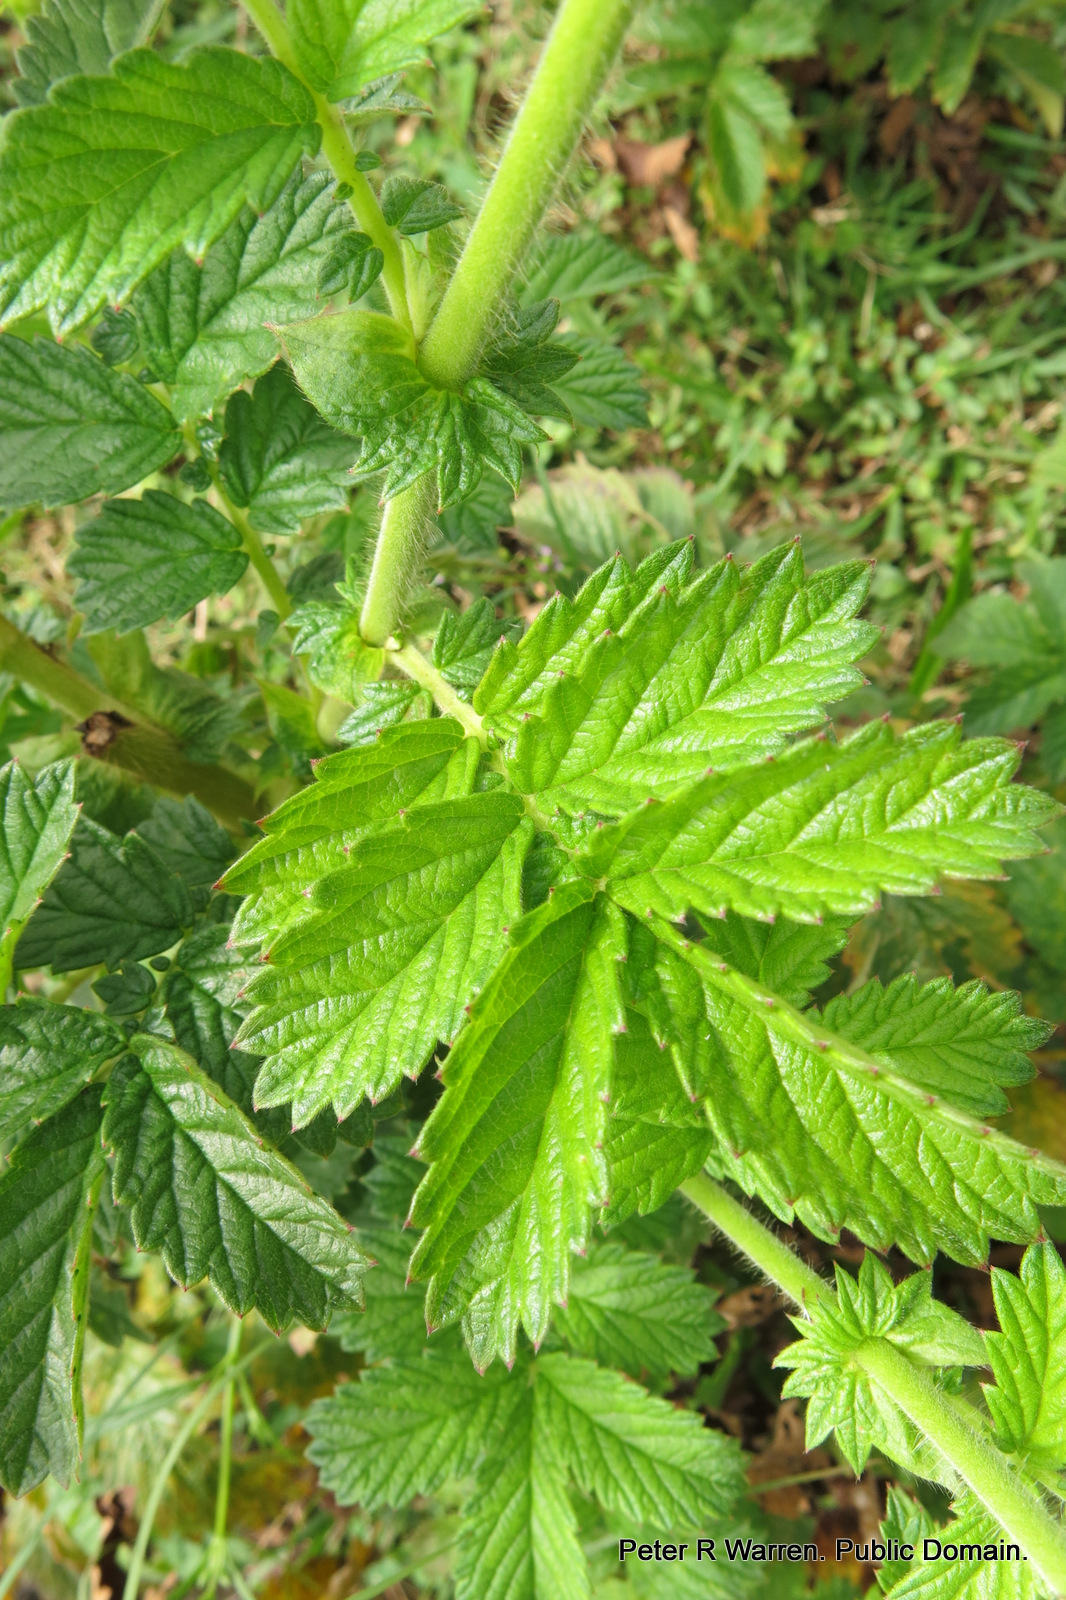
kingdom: Plantae
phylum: Tracheophyta
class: Magnoliopsida
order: Rosales
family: Rosaceae
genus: Agrimonia
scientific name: Agrimonia bracteata
